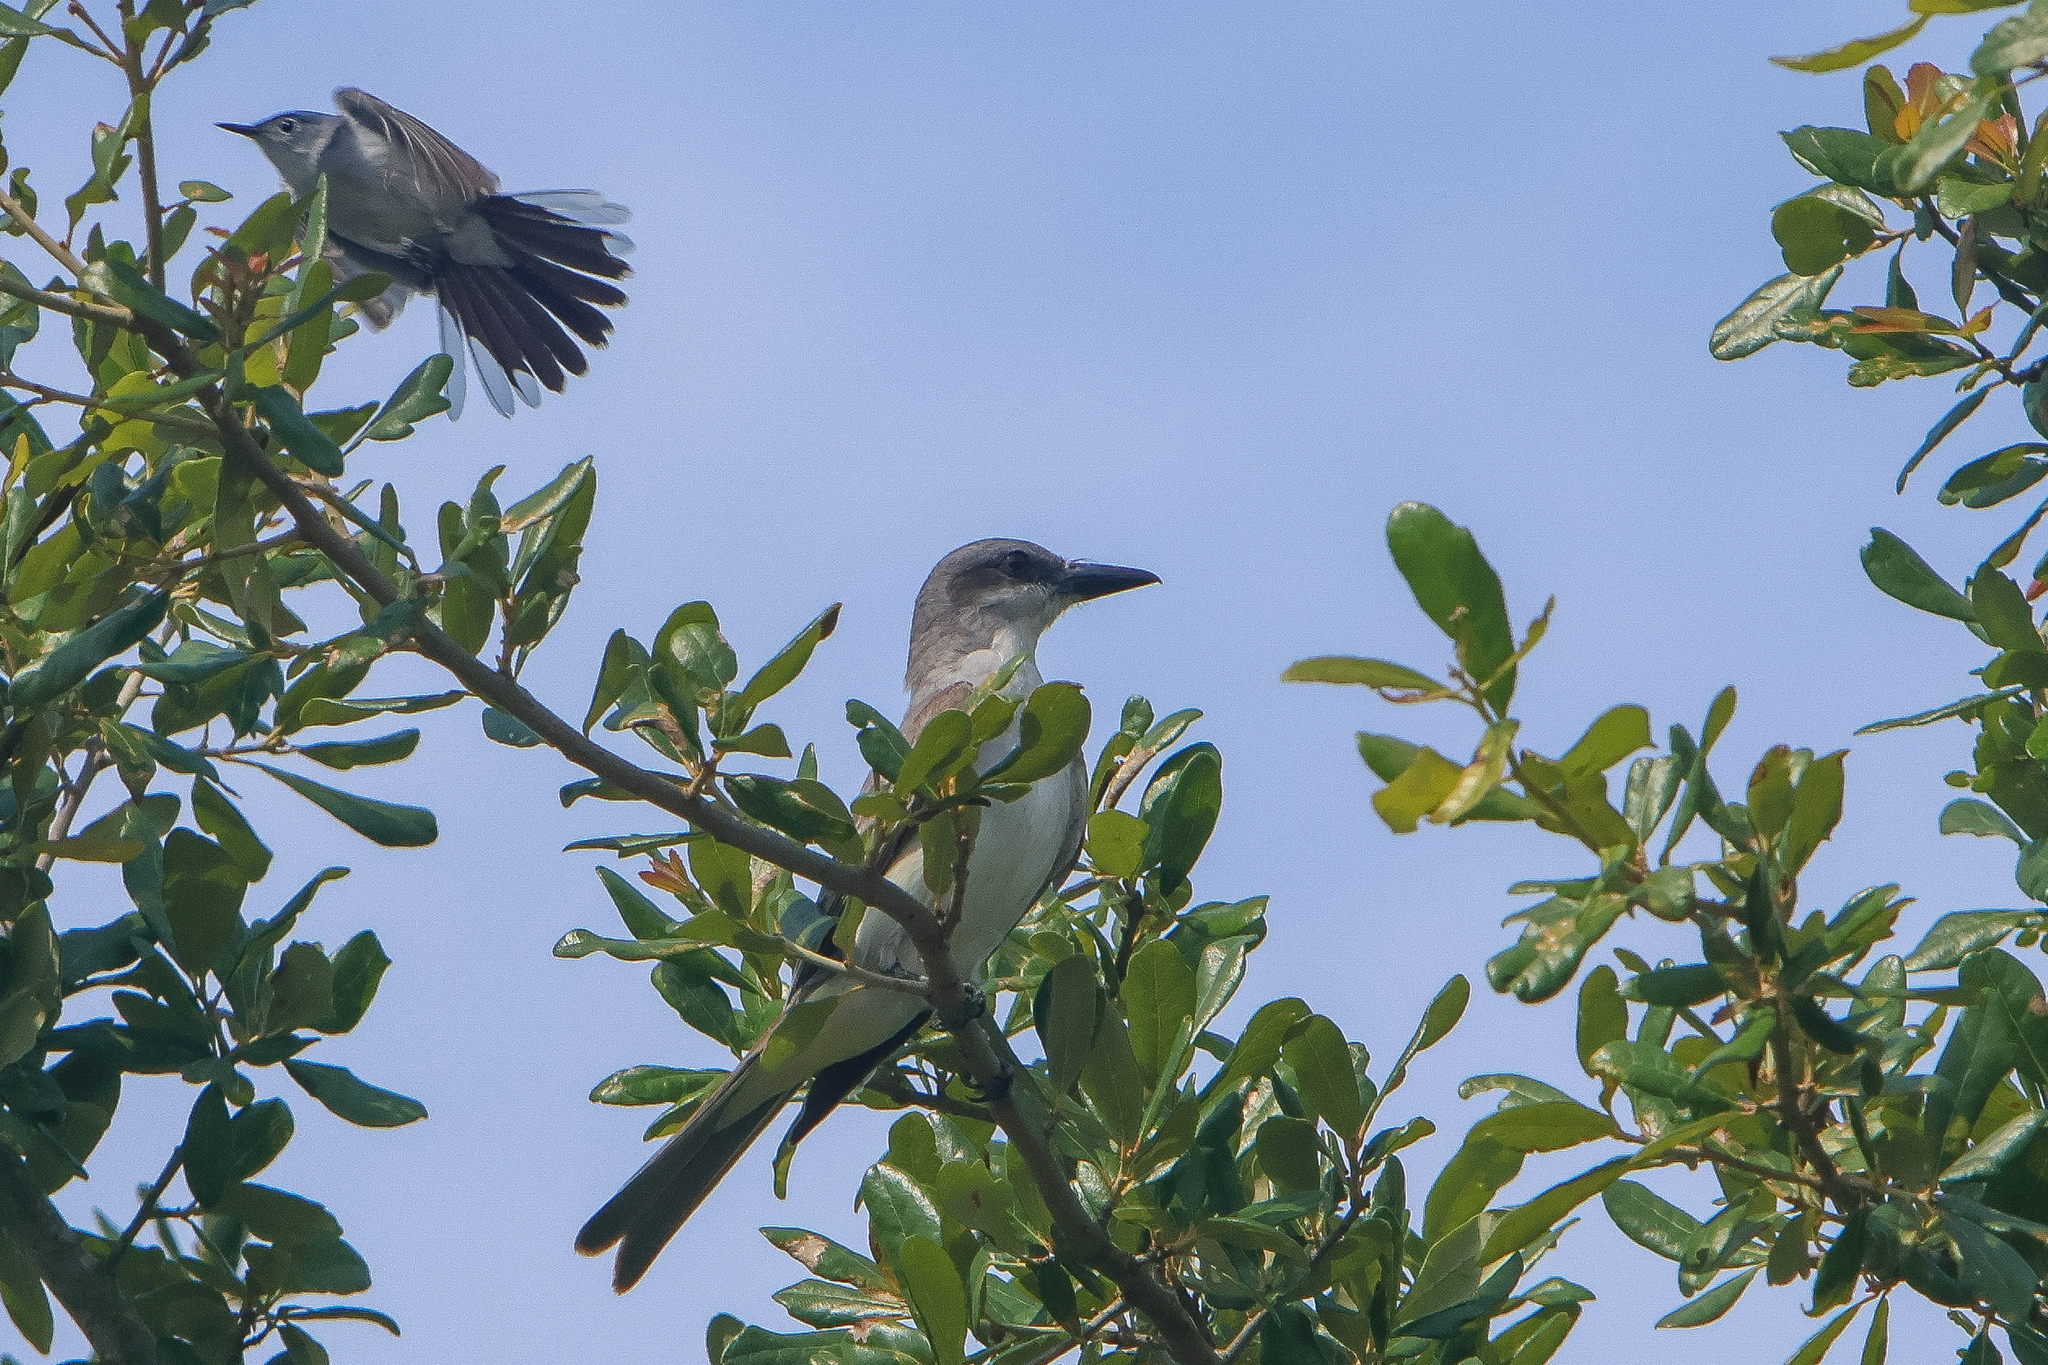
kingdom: Animalia
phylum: Chordata
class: Aves
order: Passeriformes
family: Tyrannidae
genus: Tyrannus
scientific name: Tyrannus dominicensis
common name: Gray kingbird
